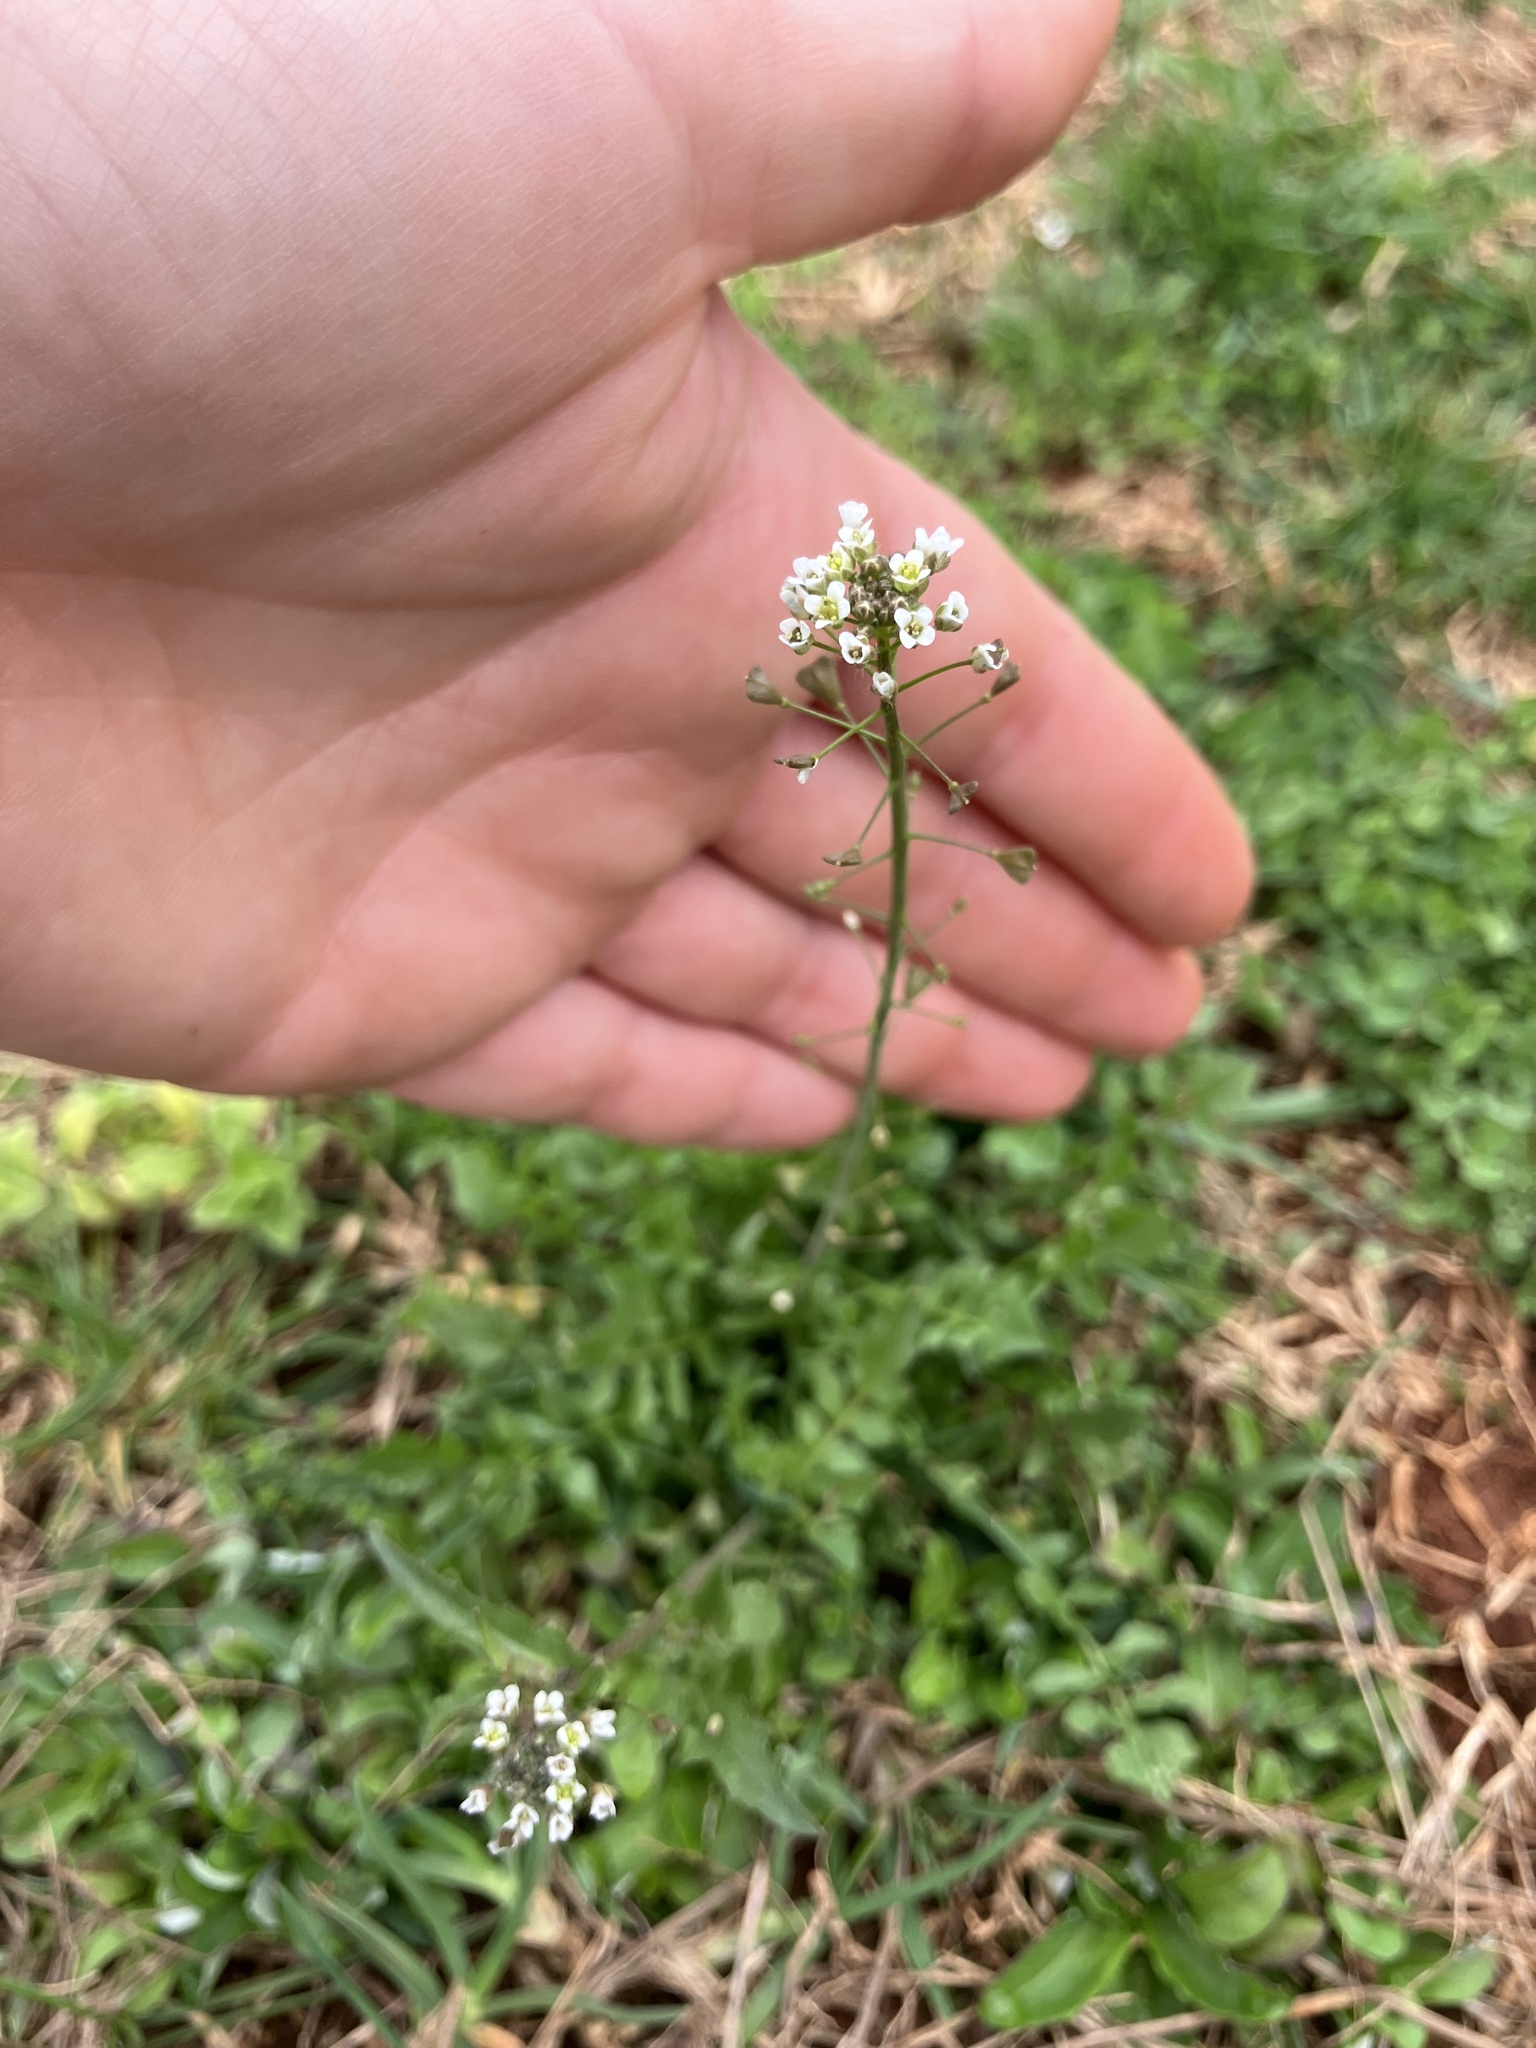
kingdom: Plantae
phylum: Tracheophyta
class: Magnoliopsida
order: Brassicales
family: Brassicaceae
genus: Capsella
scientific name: Capsella bursa-pastoris
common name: Shepherd's purse
